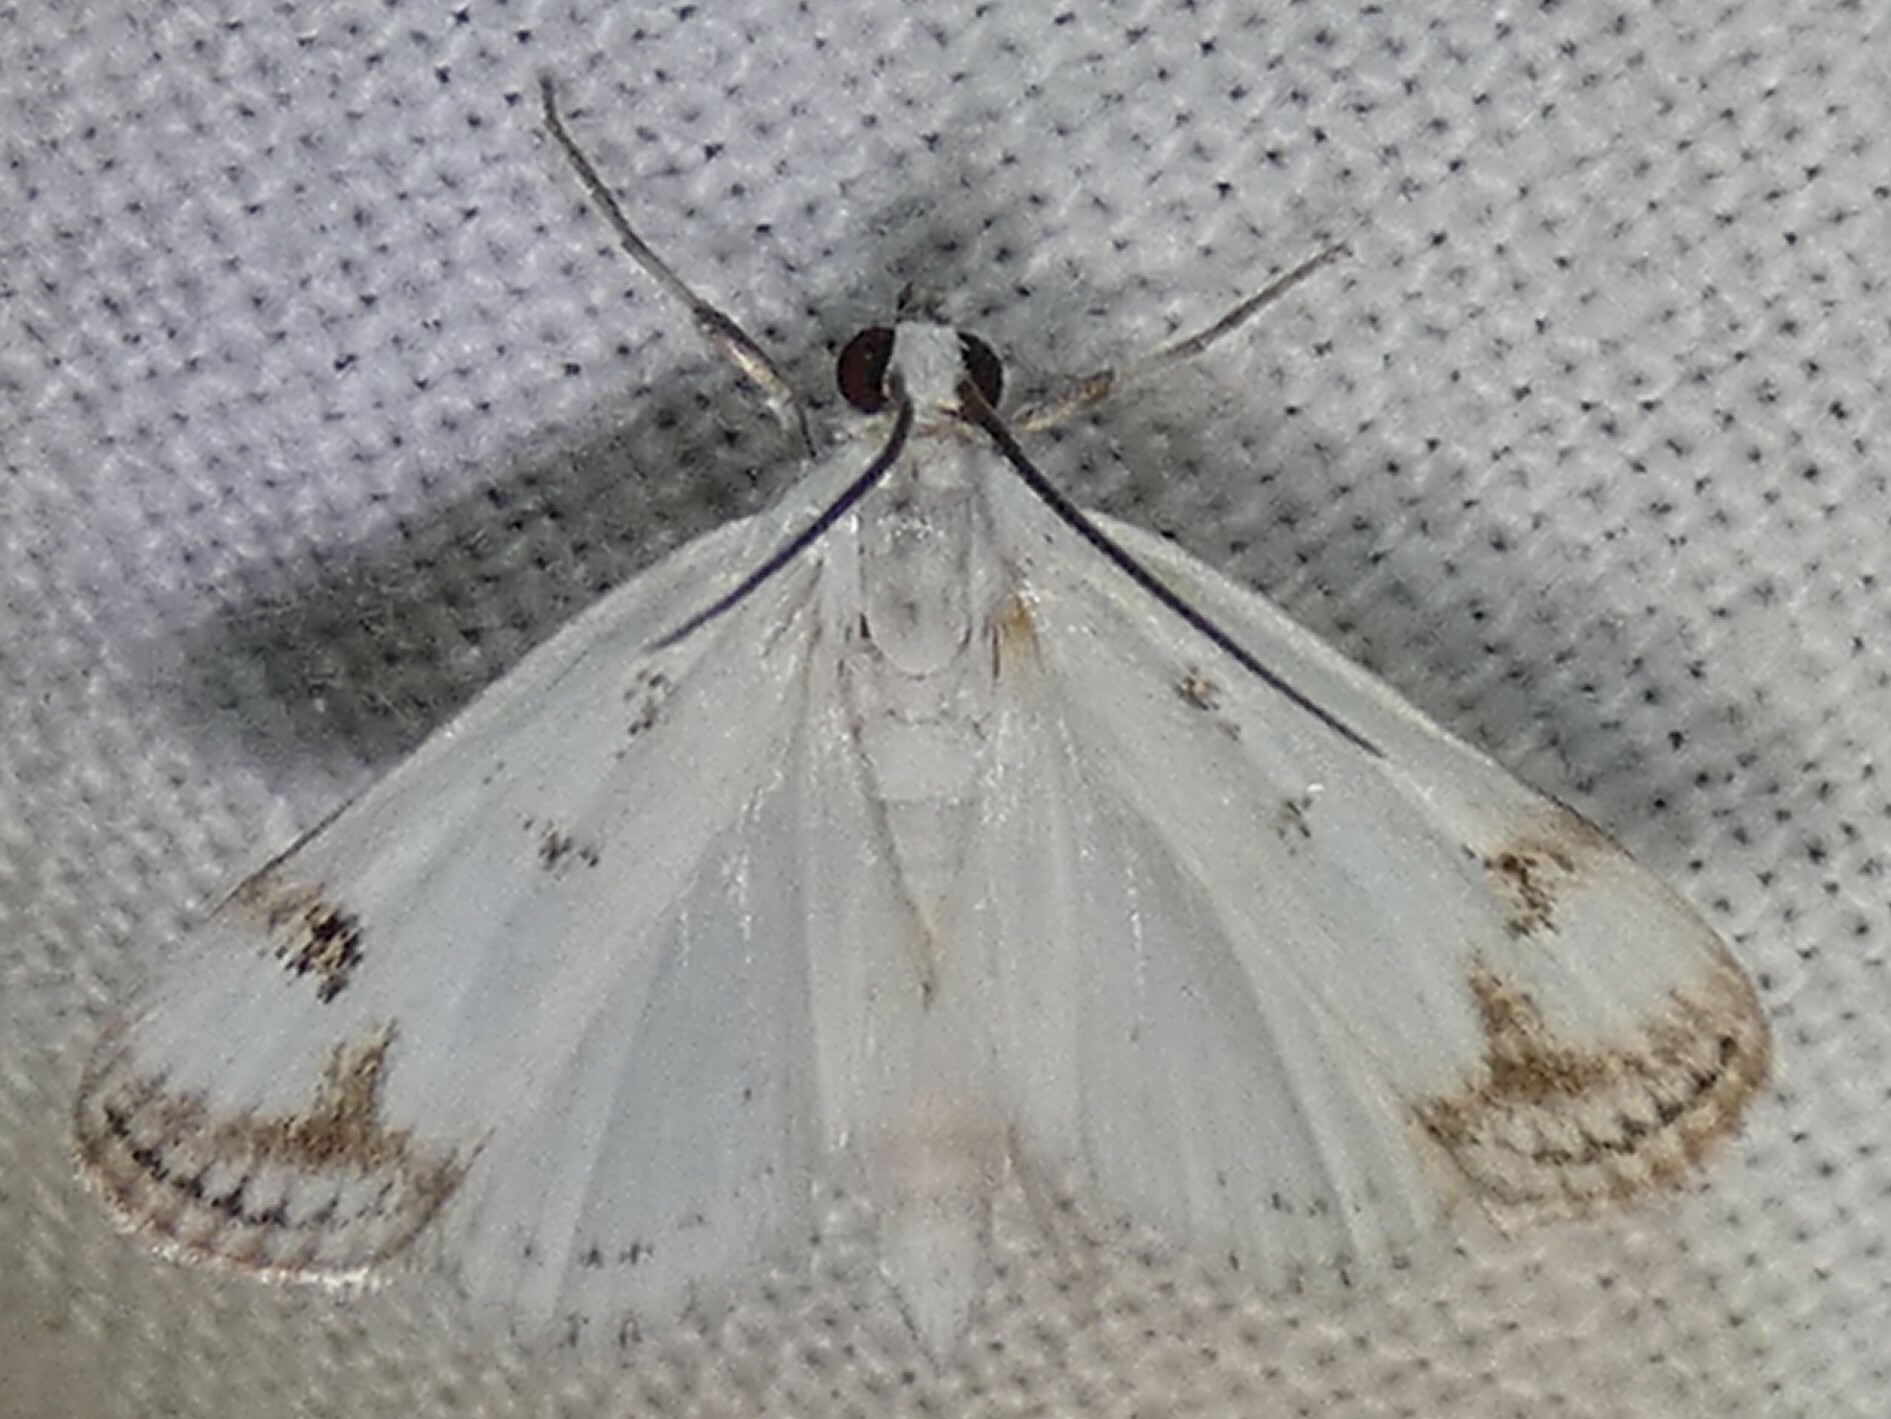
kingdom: Animalia
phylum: Arthropoda
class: Insecta
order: Lepidoptera
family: Crambidae
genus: Parapoynx
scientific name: Parapoynx maculalis
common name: Polymorphic pondweed moth
